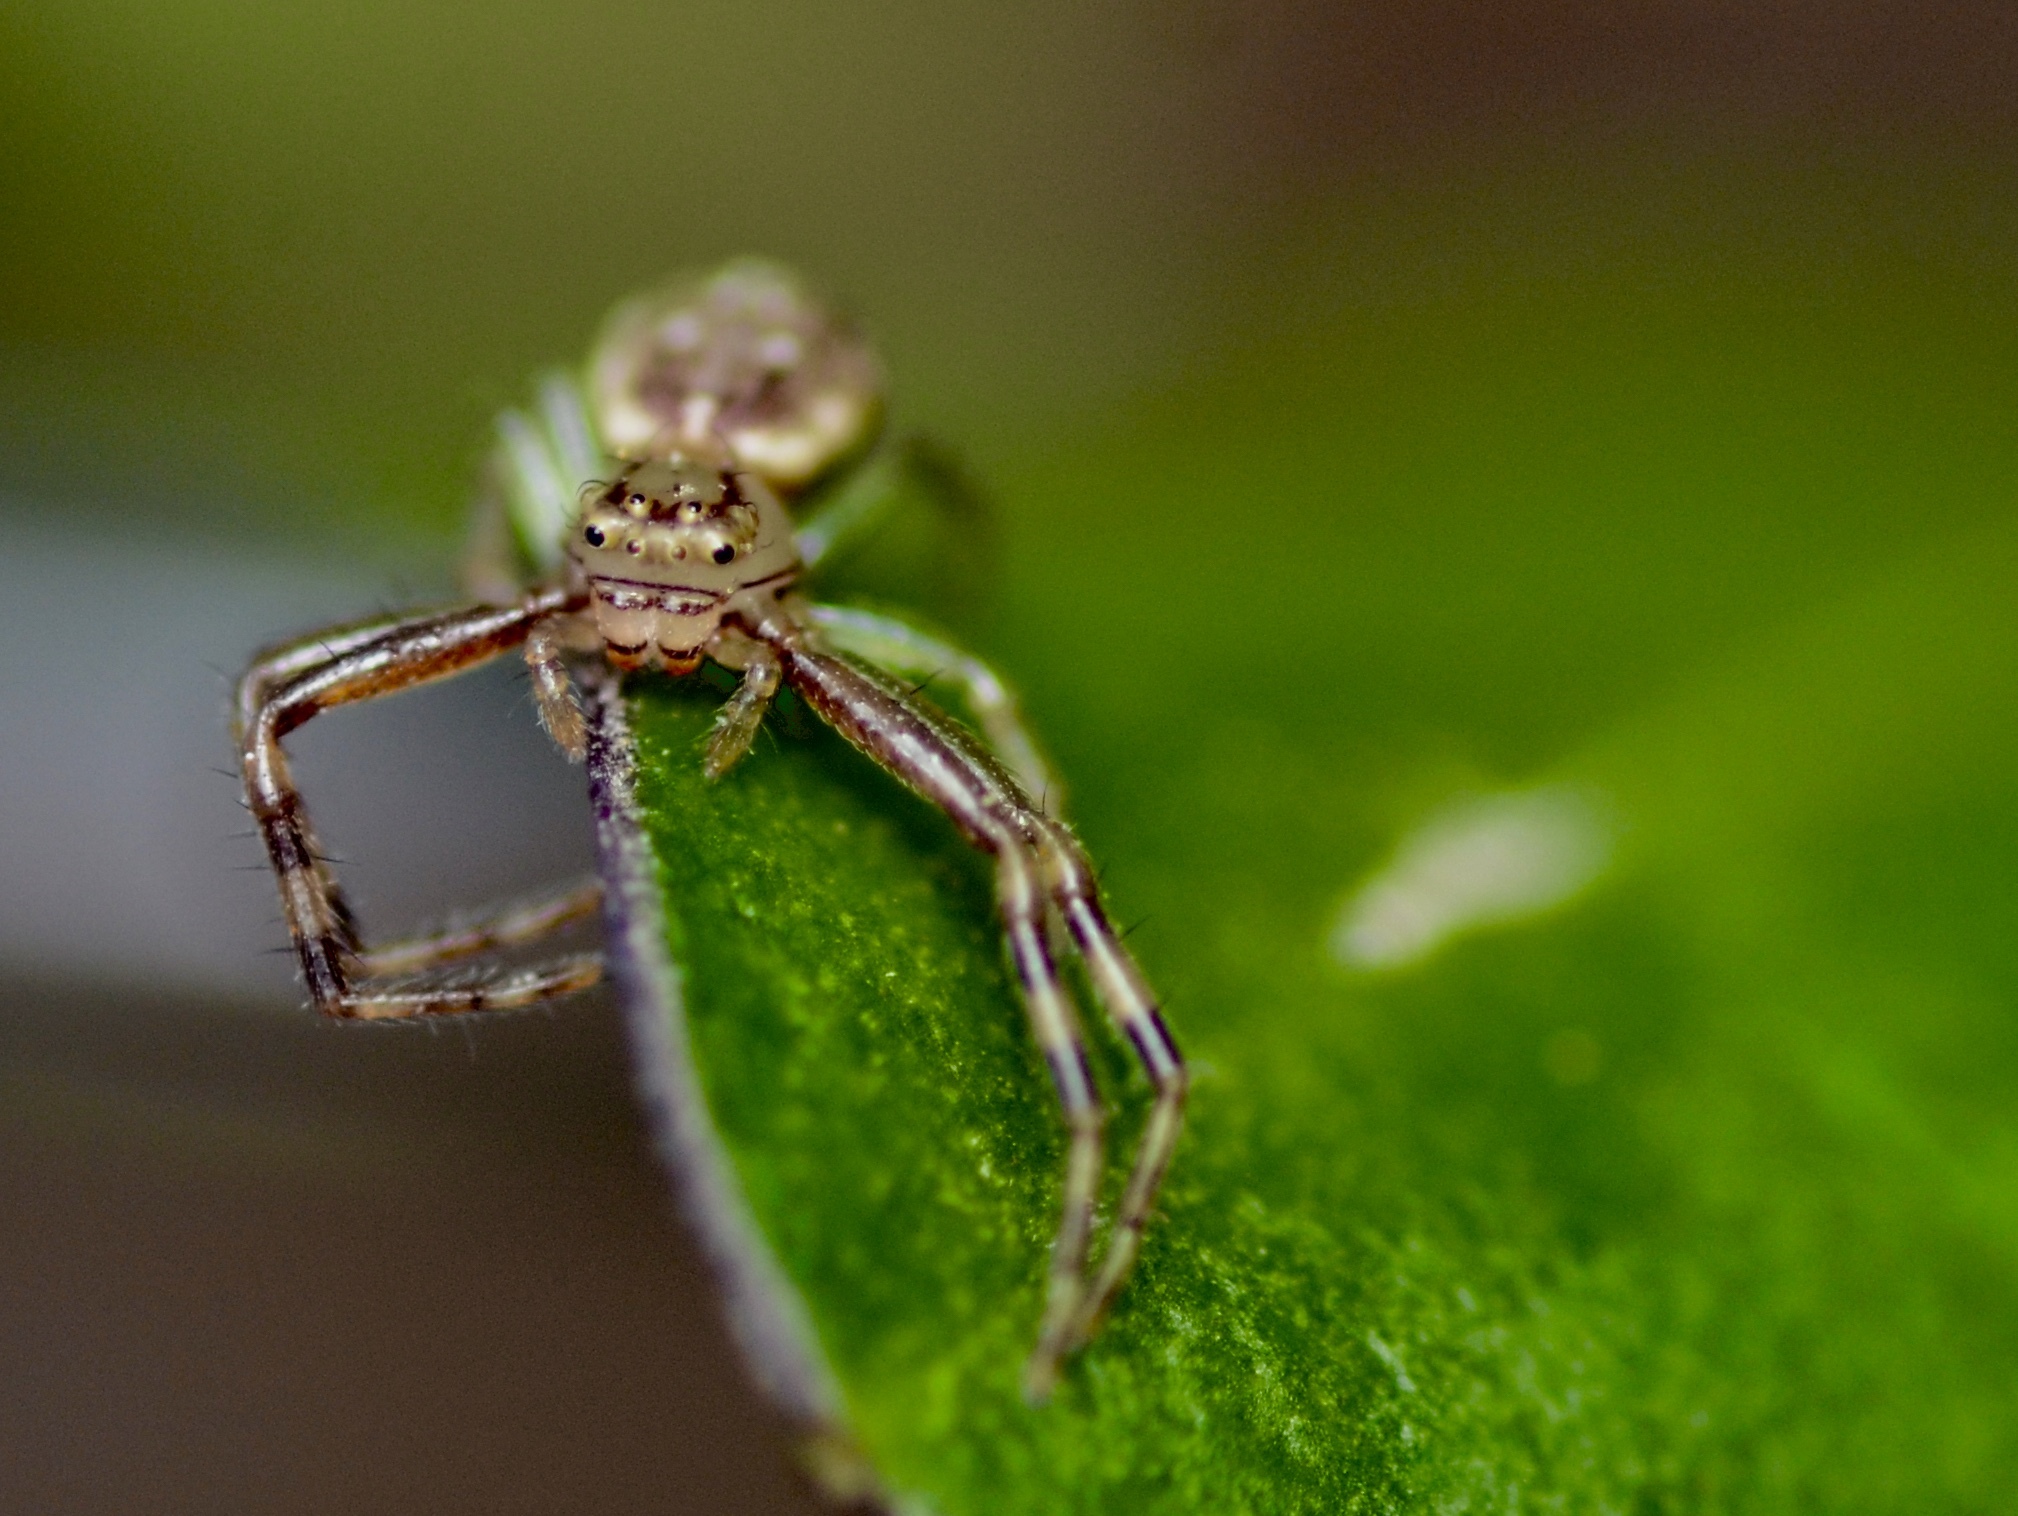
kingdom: Animalia
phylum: Arthropoda
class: Arachnida
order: Araneae
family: Thomisidae
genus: Diaea
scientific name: Diaea ambara
